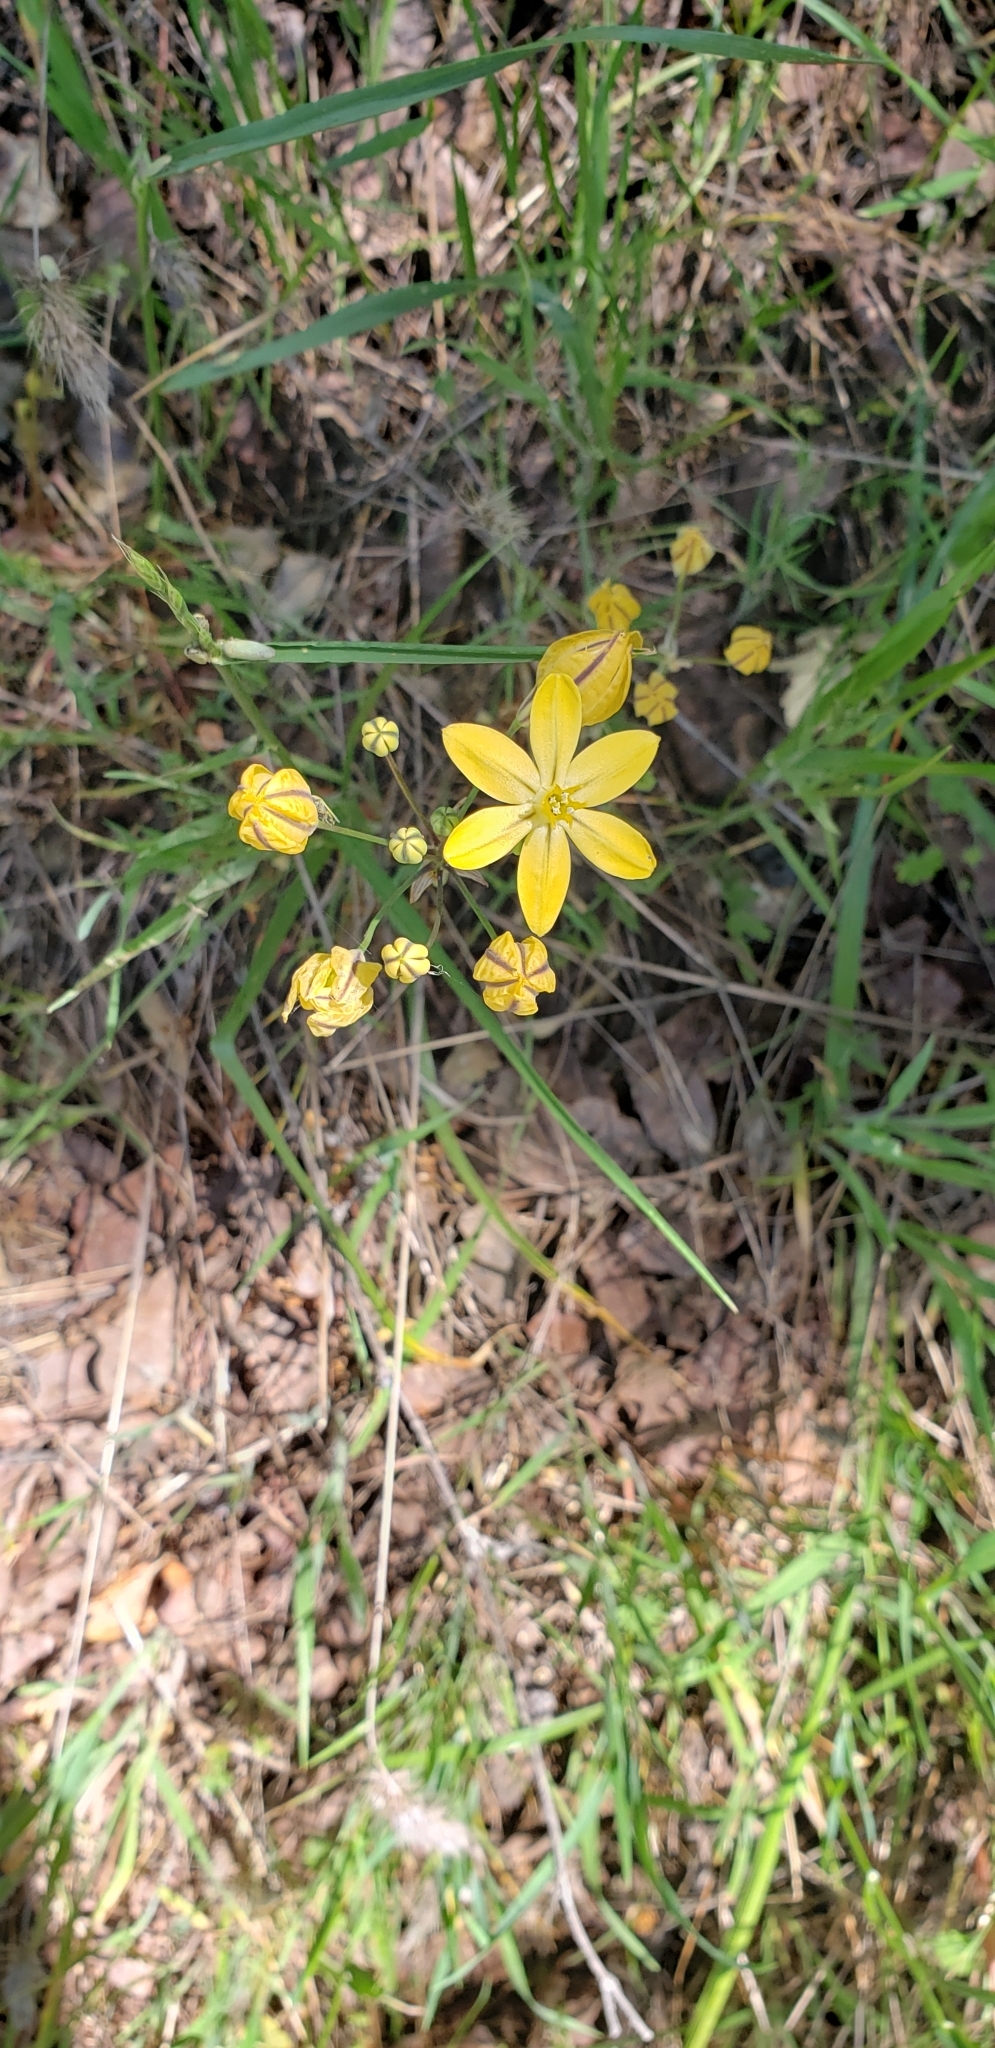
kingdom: Plantae
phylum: Tracheophyta
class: Liliopsida
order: Asparagales
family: Asparagaceae
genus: Triteleia
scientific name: Triteleia ixioides
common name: Yellow-brodiaea
